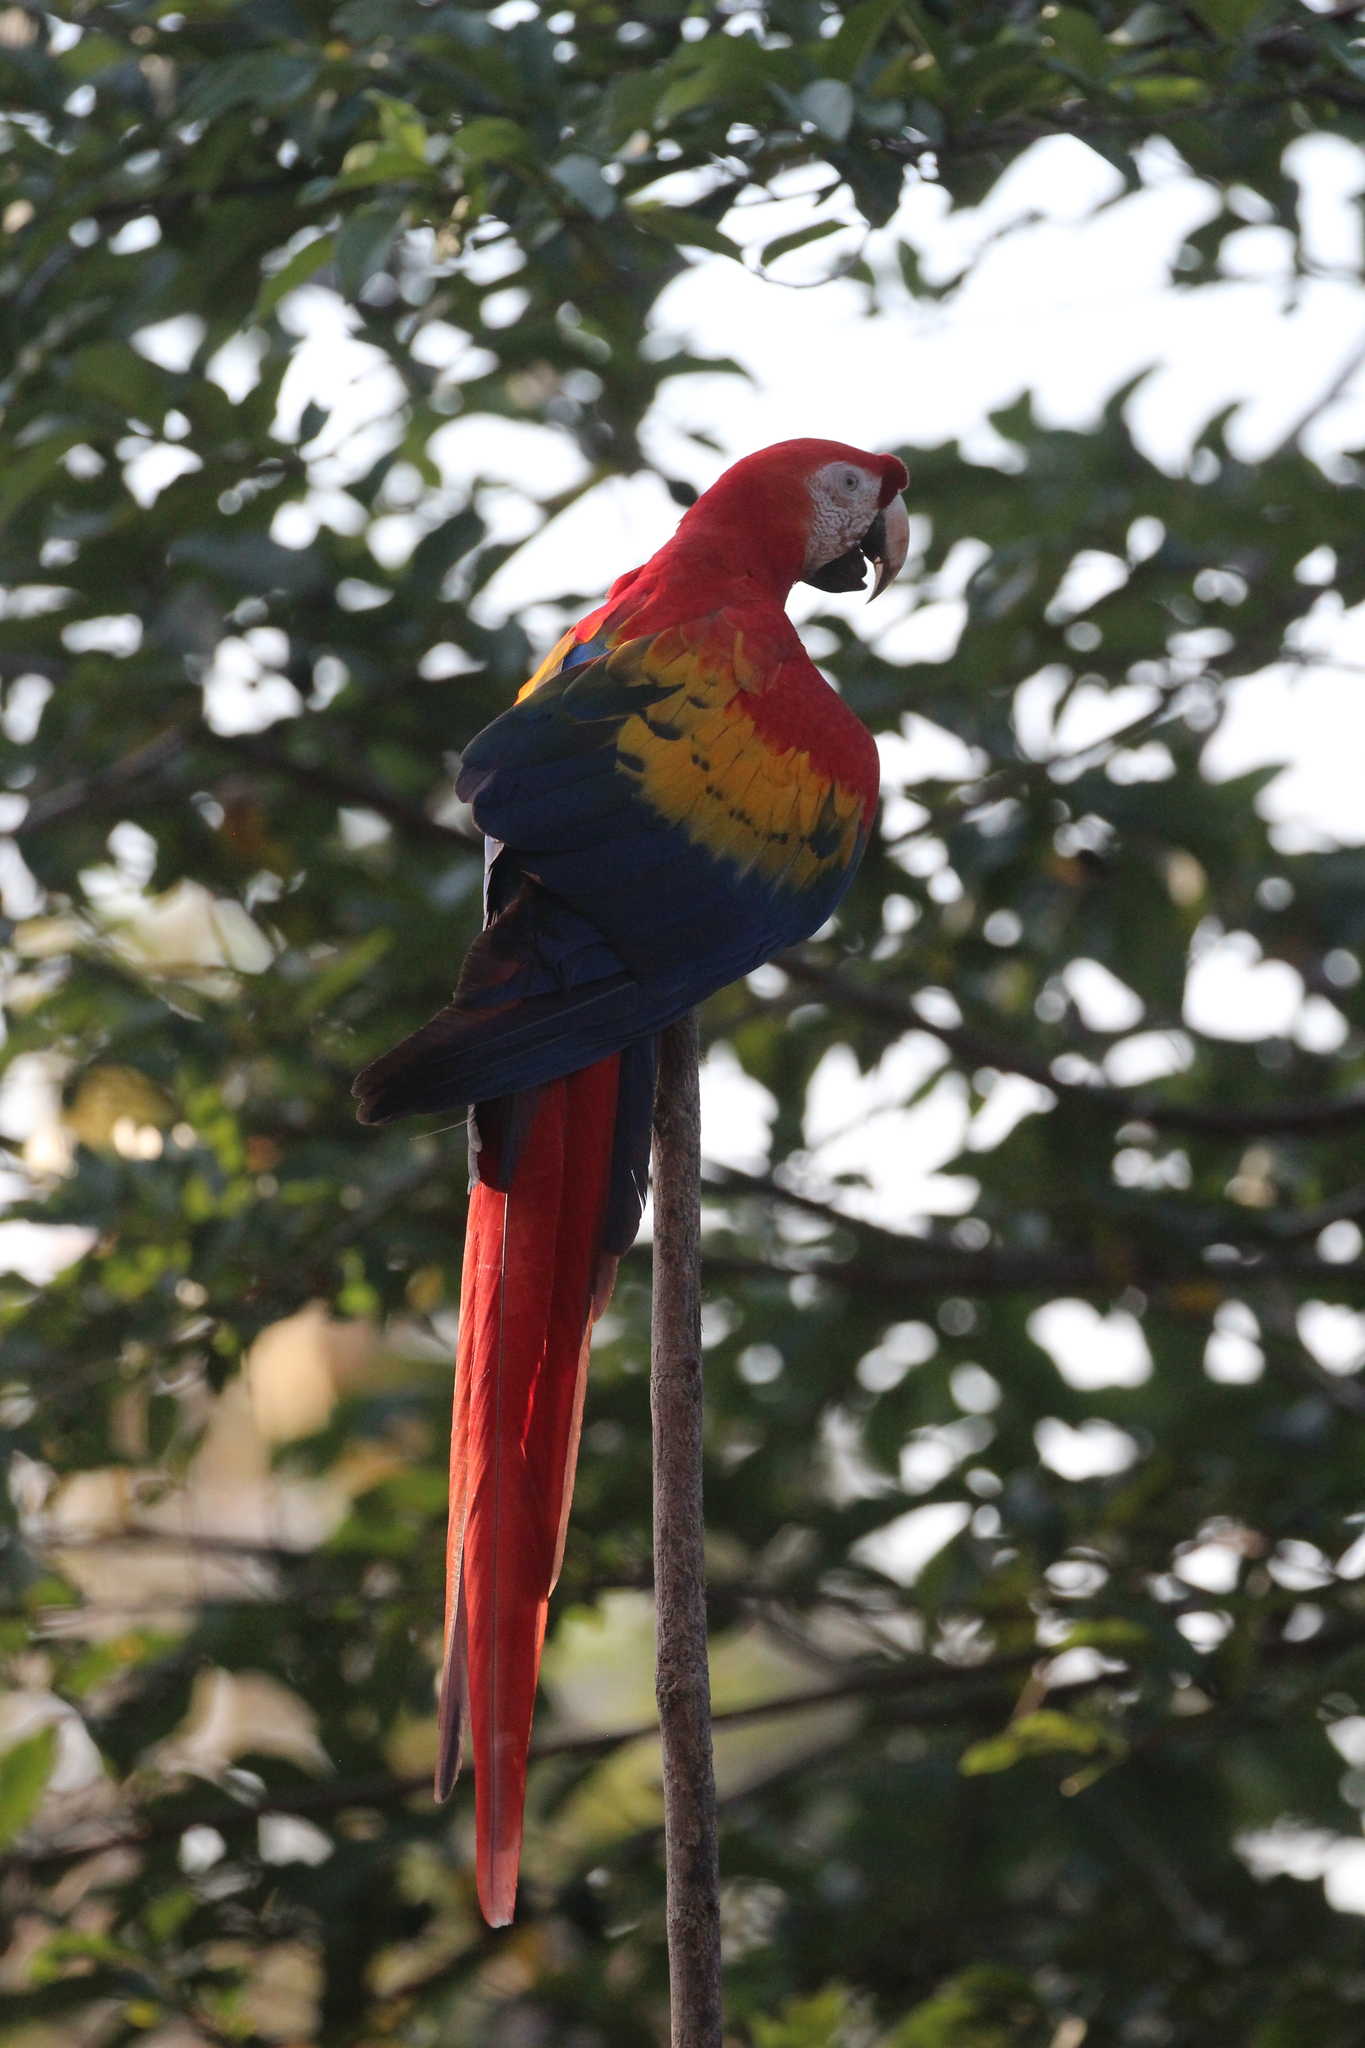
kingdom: Animalia
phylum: Chordata
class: Aves
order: Psittaciformes
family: Psittacidae
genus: Ara
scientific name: Ara macao
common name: Scarlet macaw
